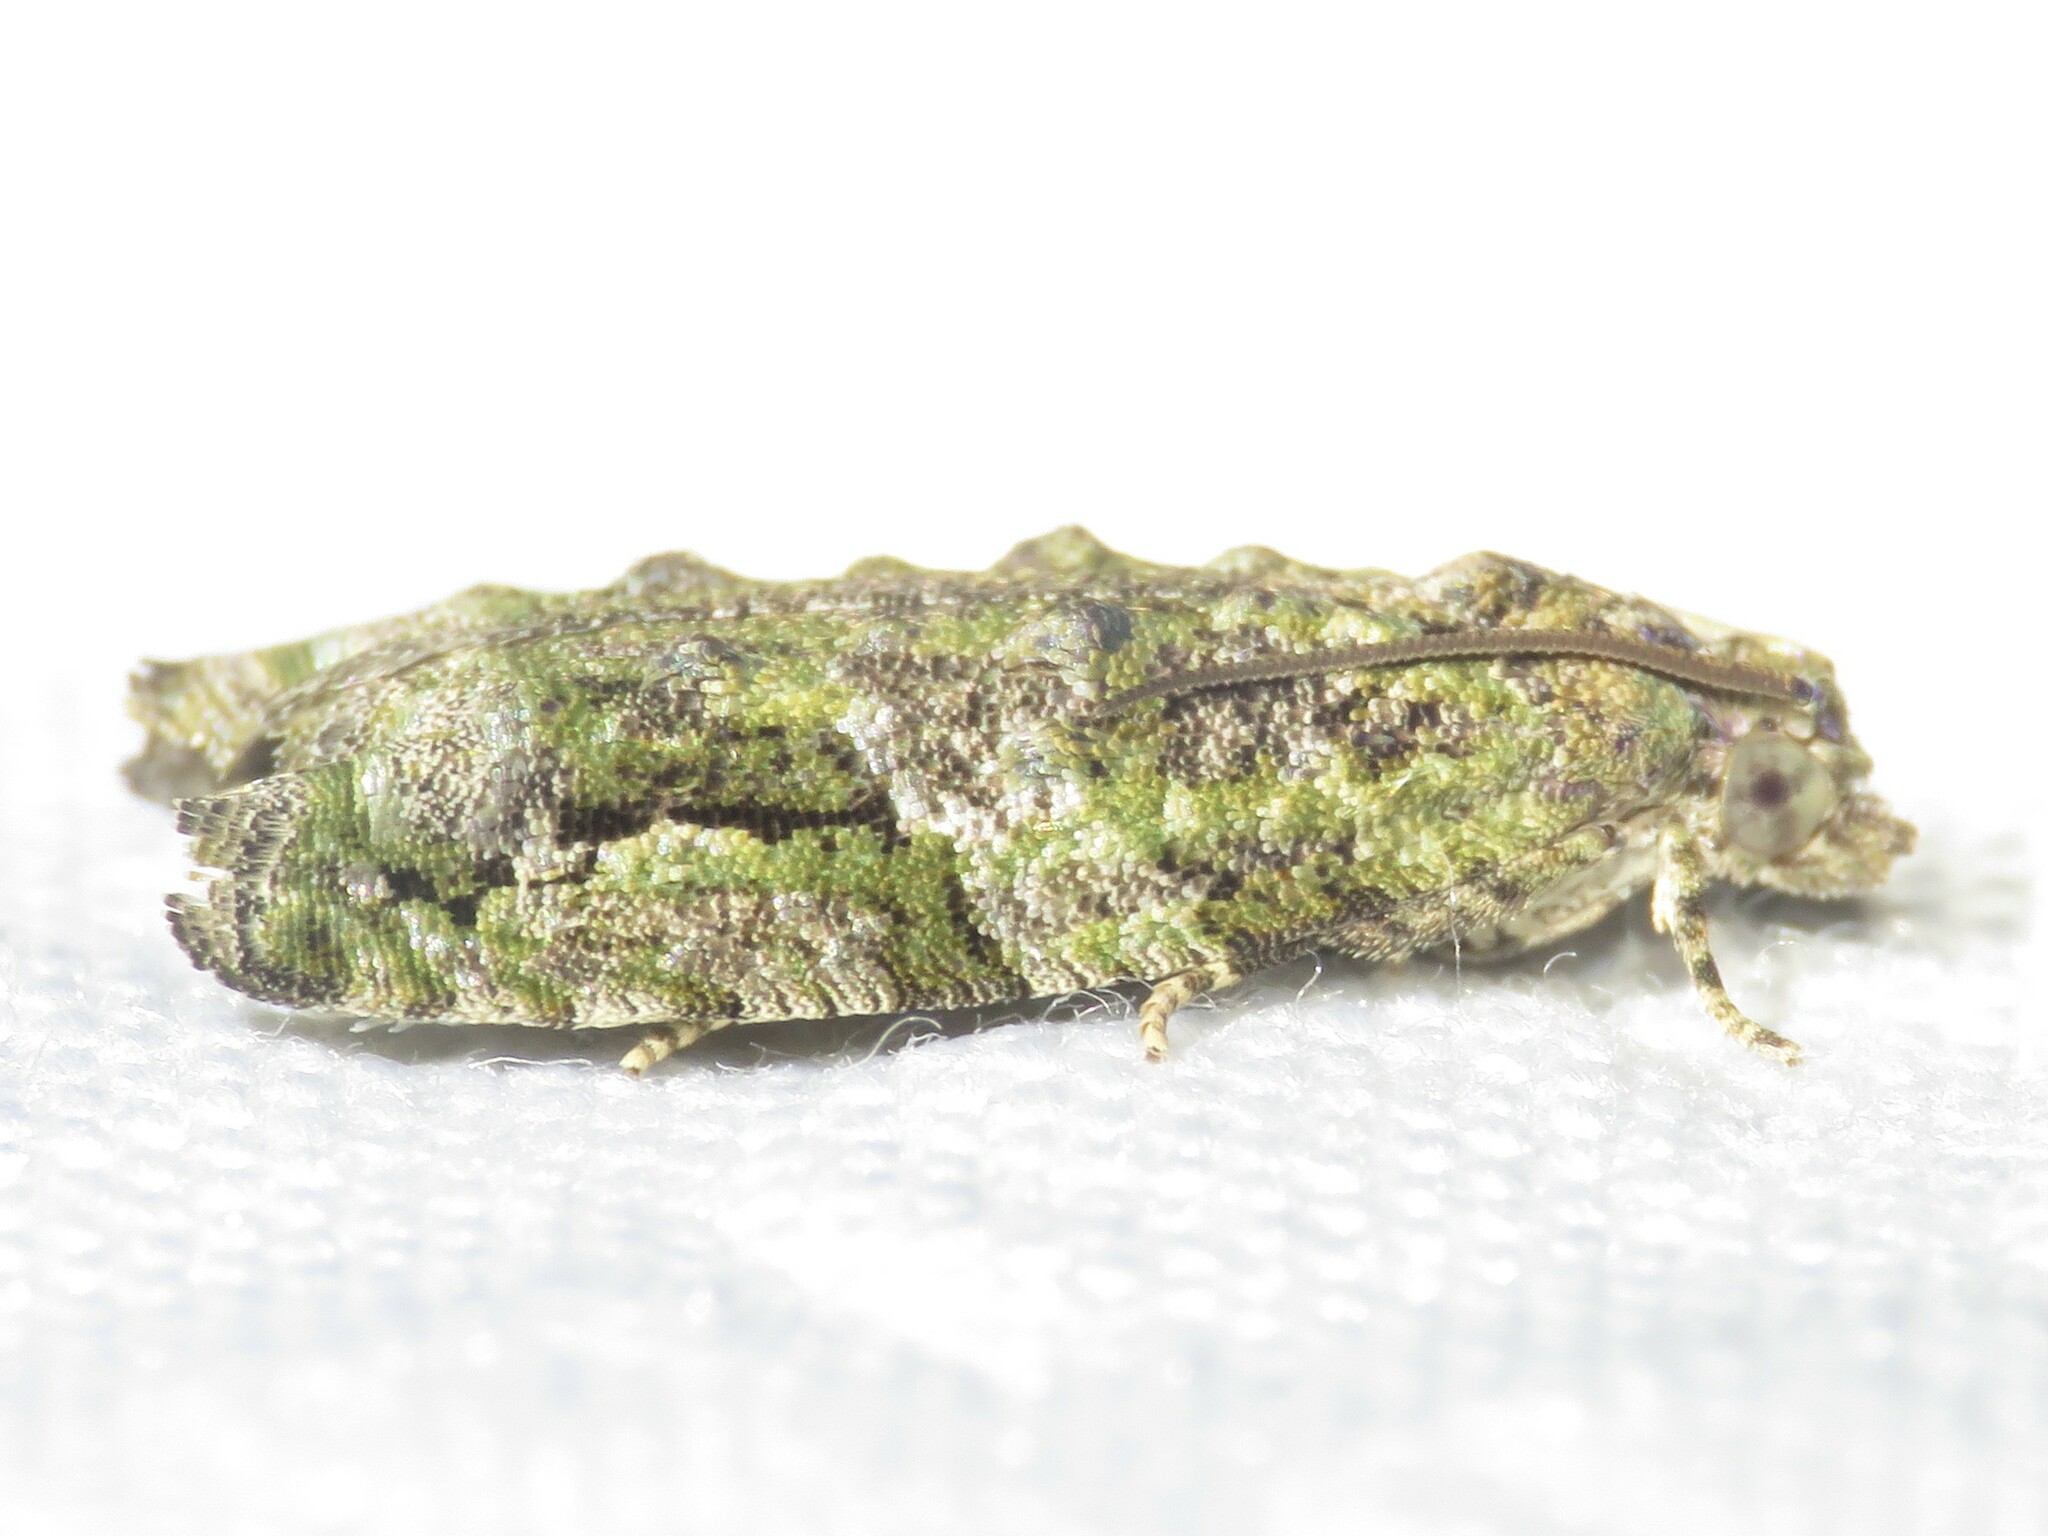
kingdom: Animalia
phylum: Arthropoda
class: Insecta
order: Lepidoptera
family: Tortricidae
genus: Proteoteras
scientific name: Proteoteras aesculana
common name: Maple twig borer moth
